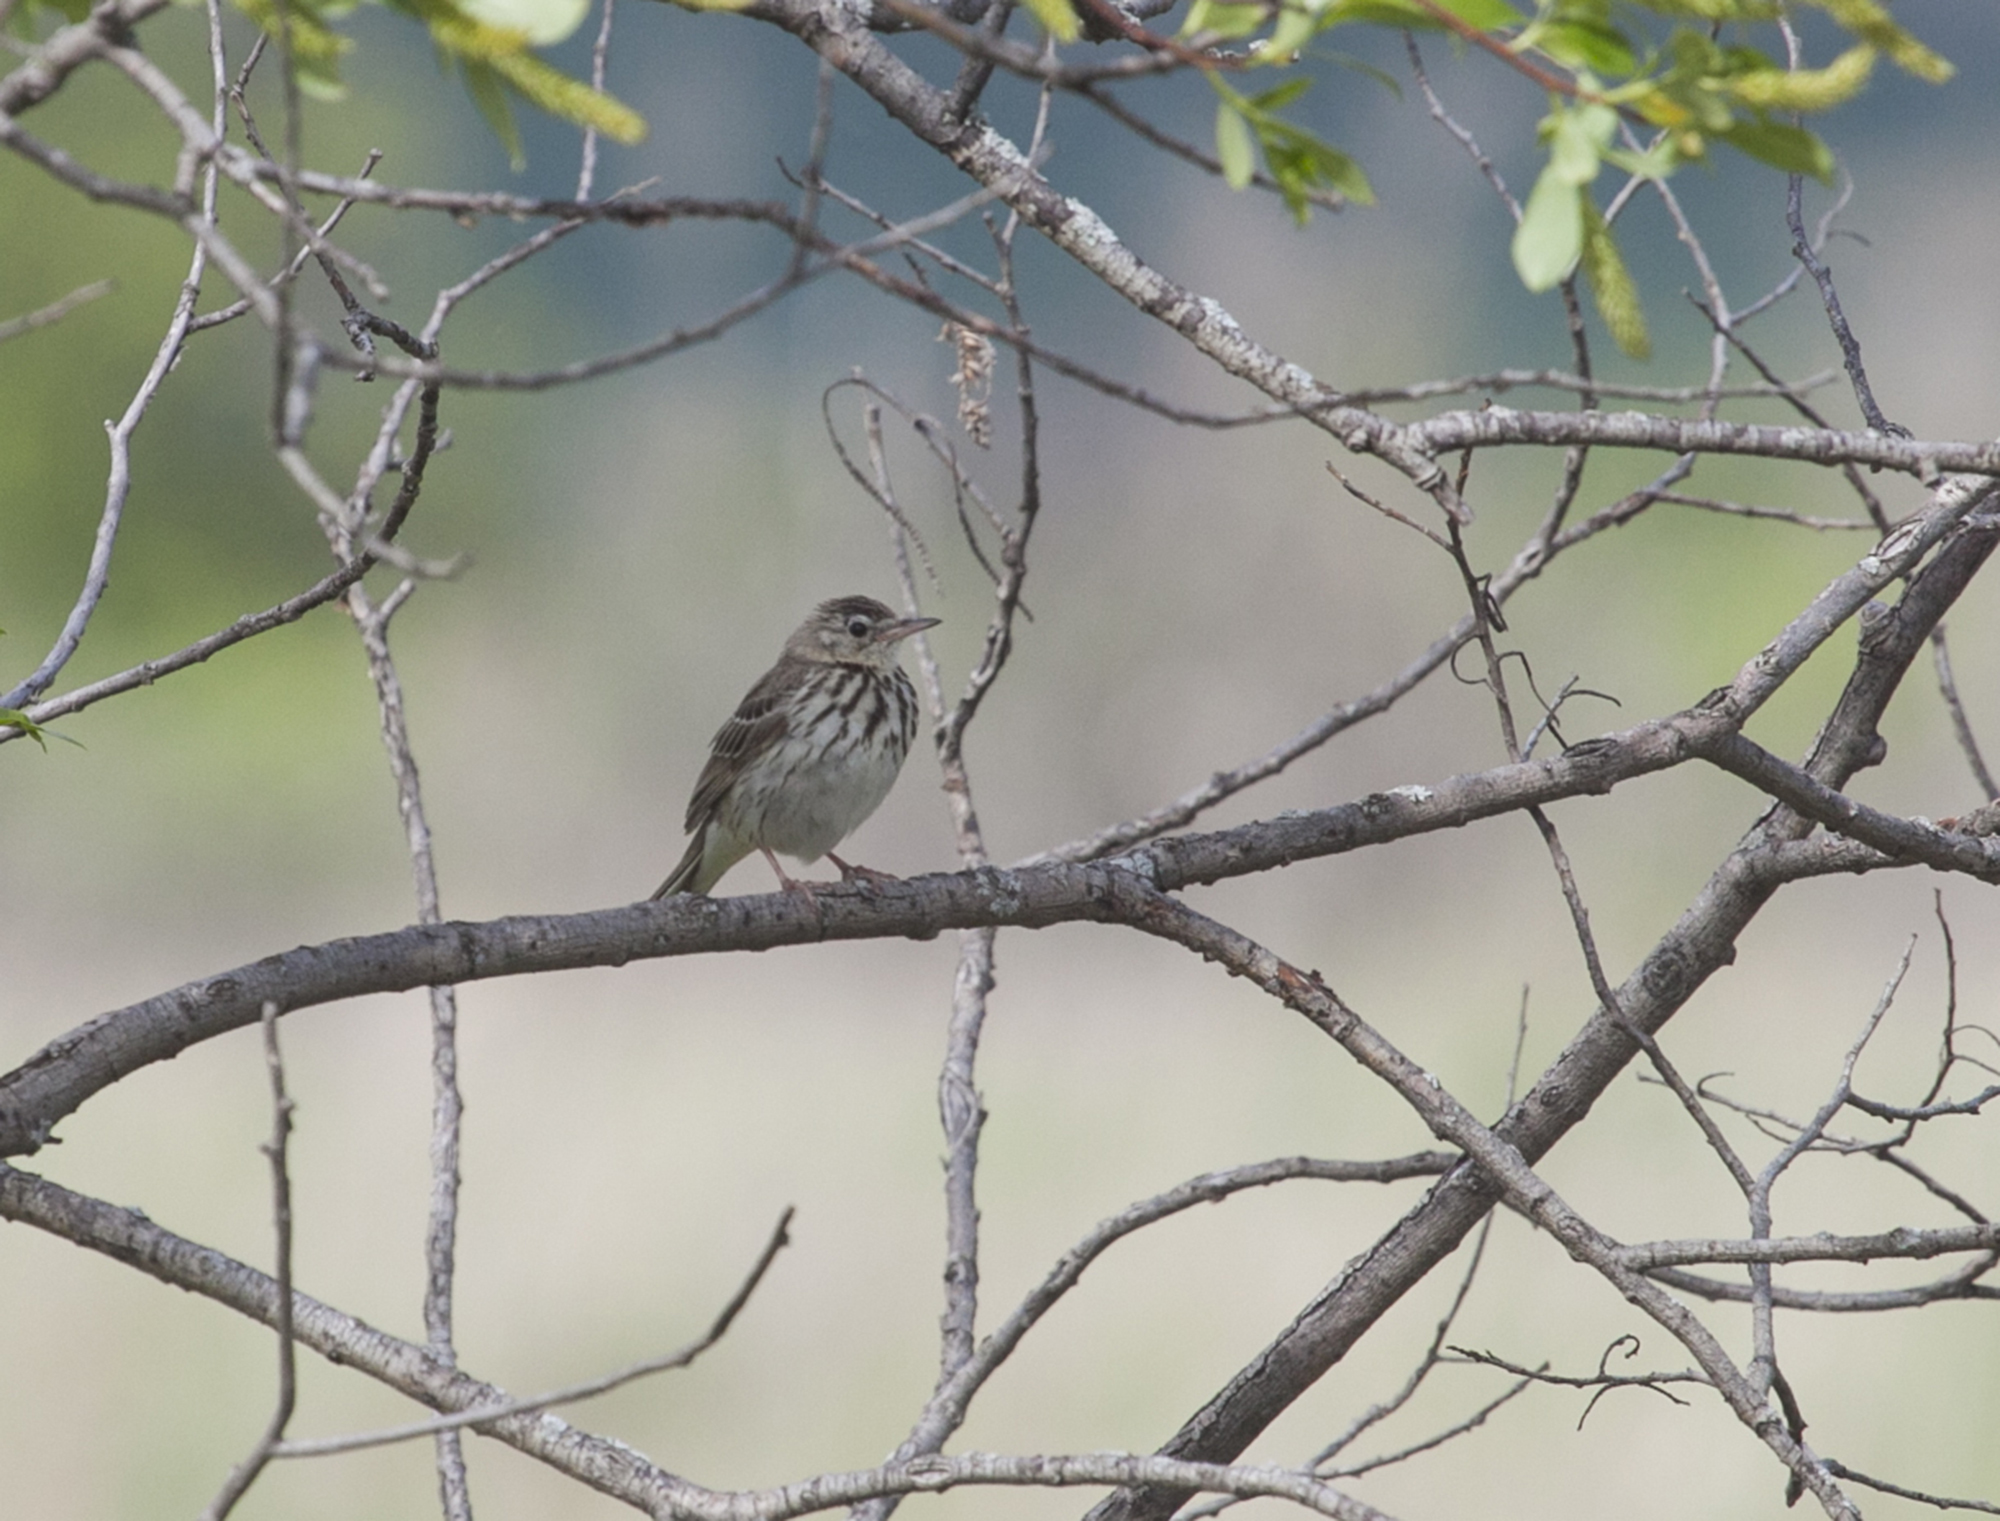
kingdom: Animalia
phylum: Chordata
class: Aves
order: Passeriformes
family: Motacillidae
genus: Anthus
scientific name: Anthus trivialis
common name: Tree pipit
